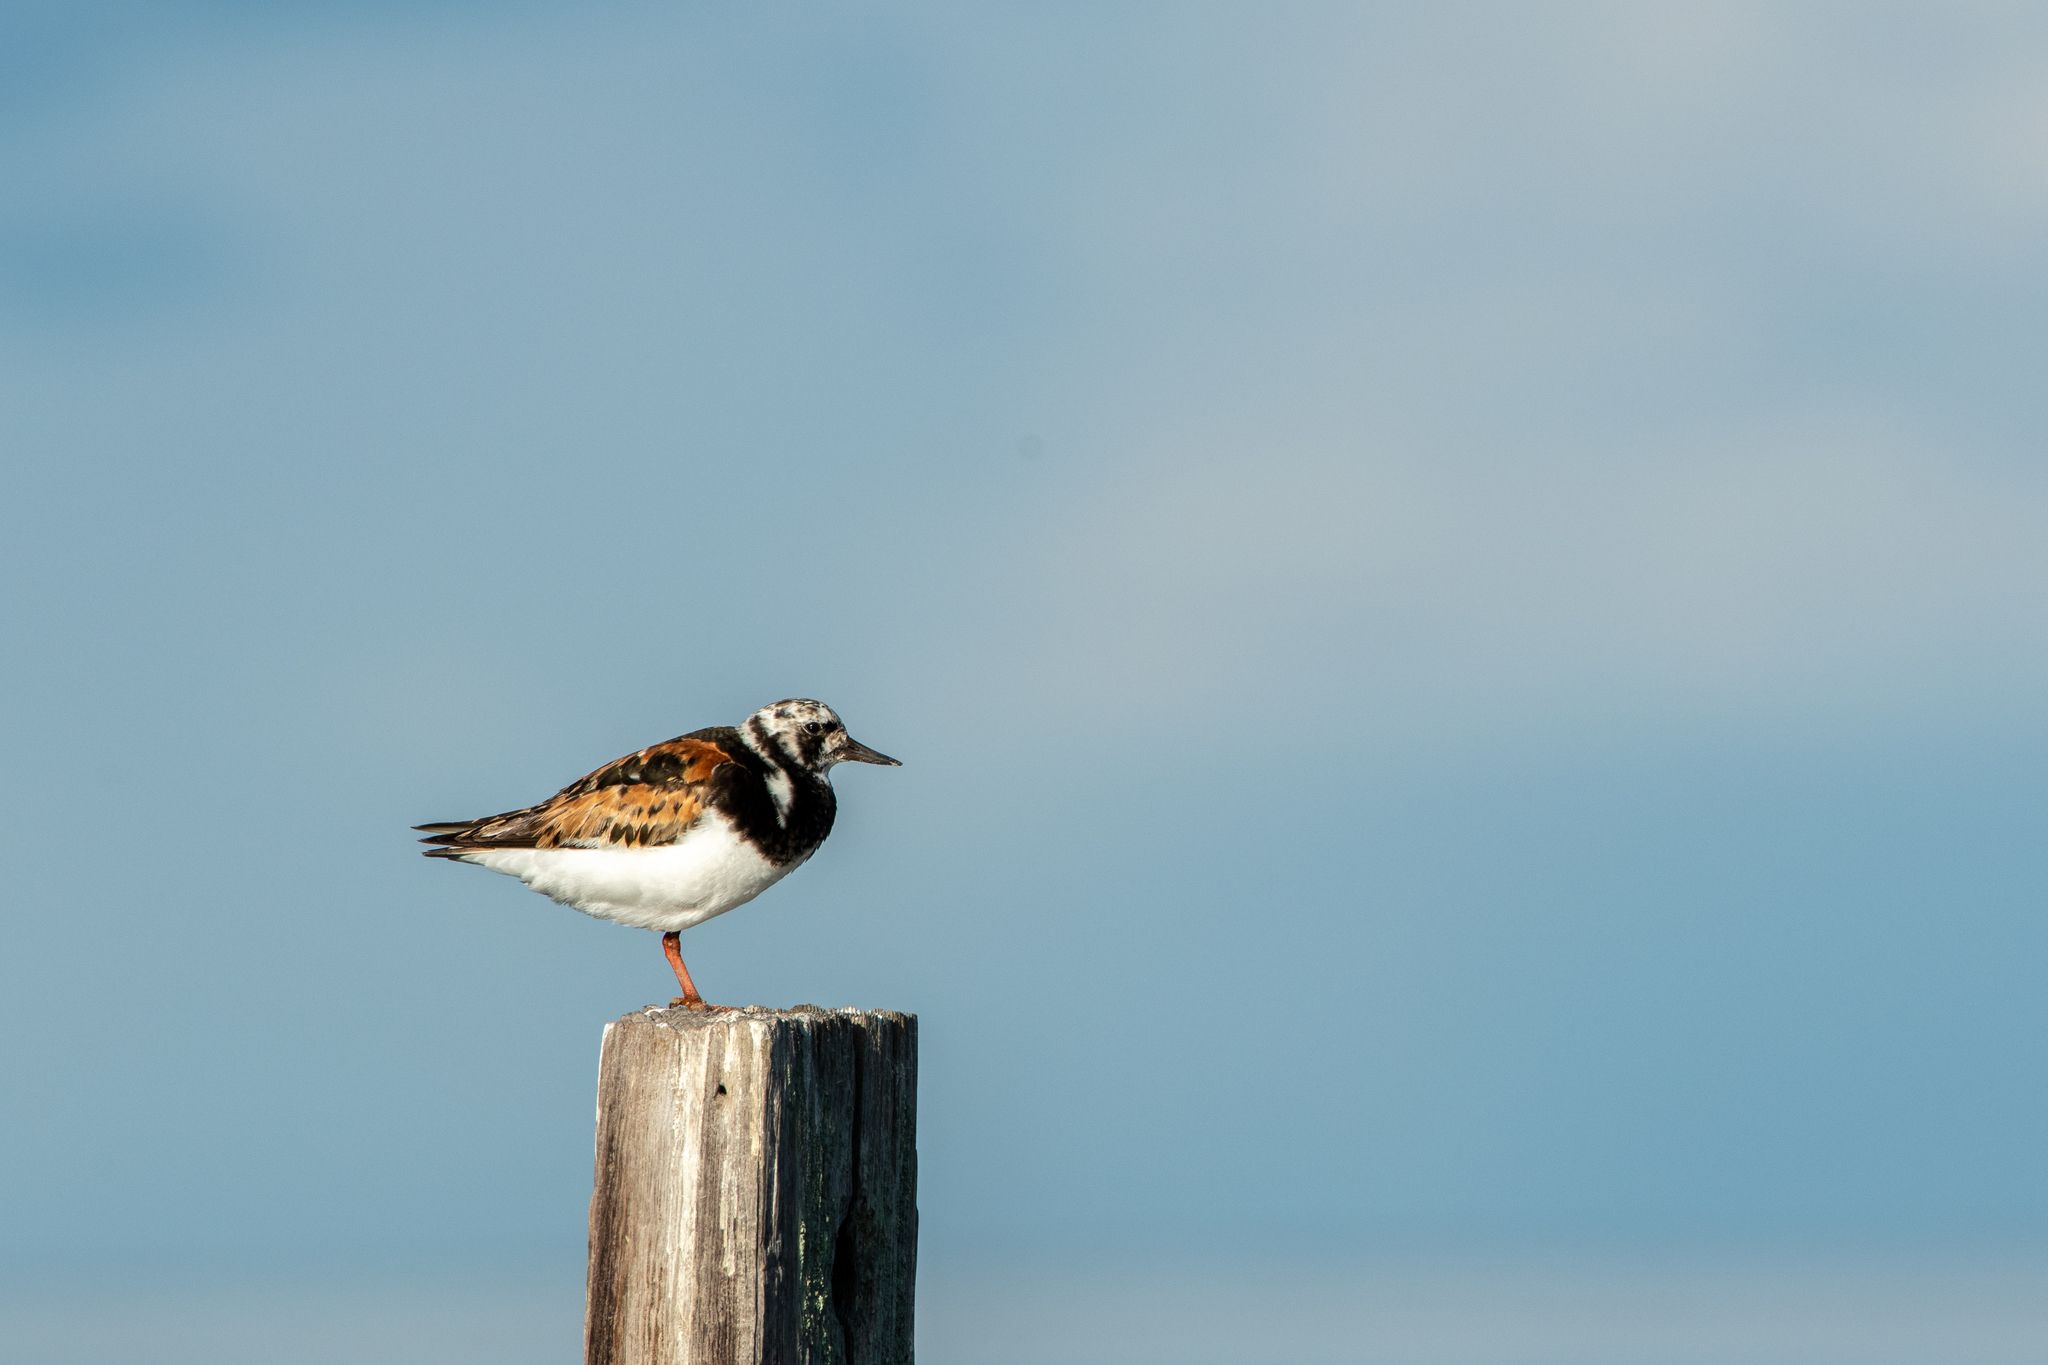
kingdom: Animalia
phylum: Chordata
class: Aves
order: Charadriiformes
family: Scolopacidae
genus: Arenaria
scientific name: Arenaria interpres
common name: Ruddy turnstone
